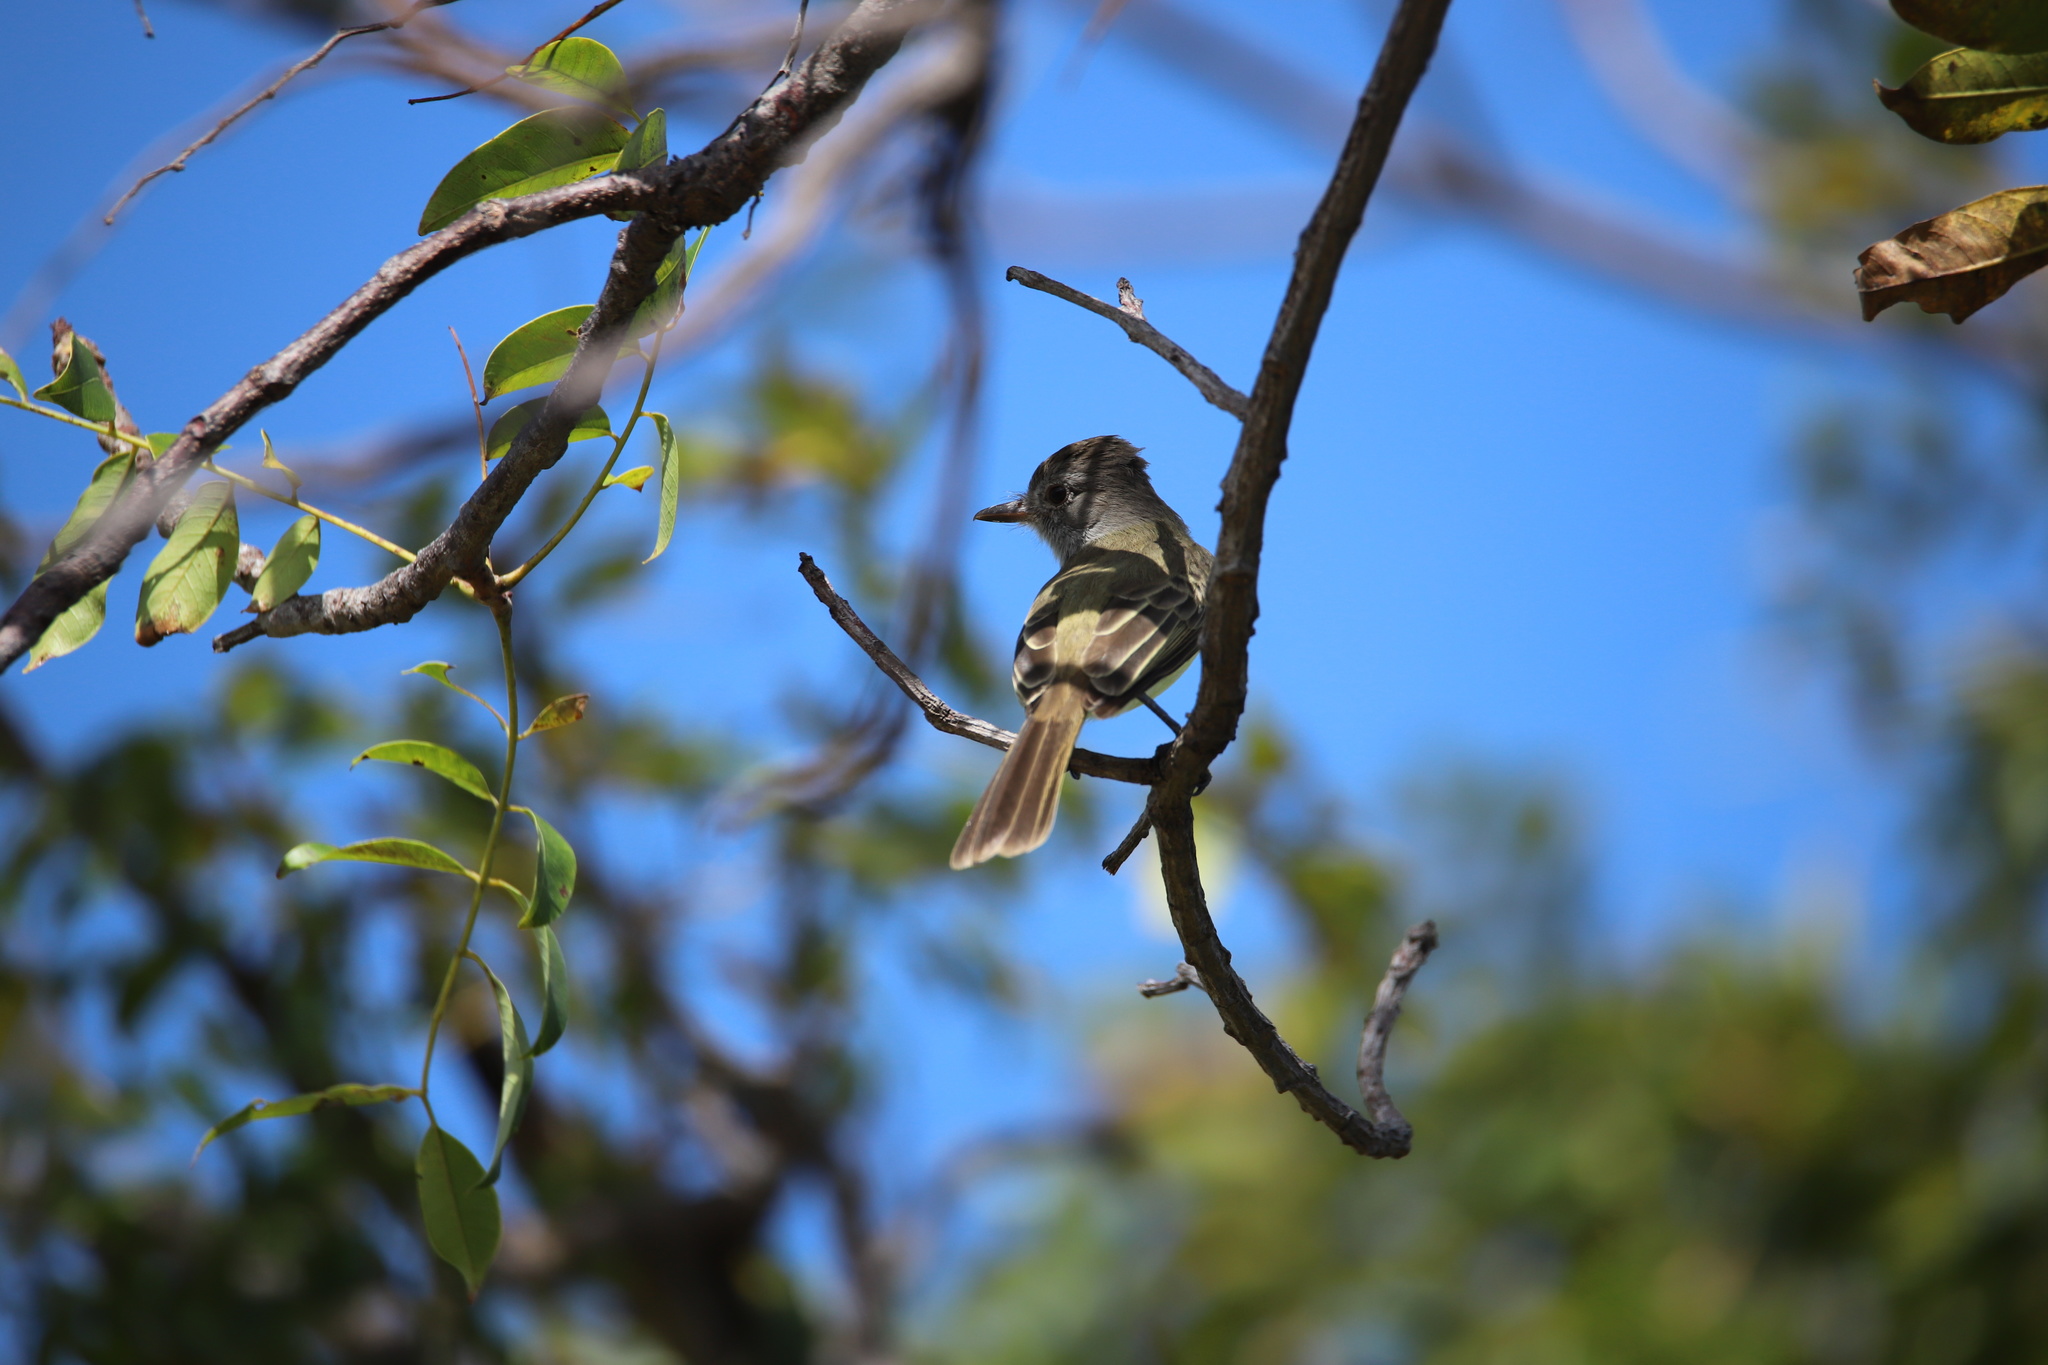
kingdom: Animalia
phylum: Chordata
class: Aves
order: Passeriformes
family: Tyrannidae
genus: Myiarchus
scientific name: Myiarchus panamensis
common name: Panama flycatcher
